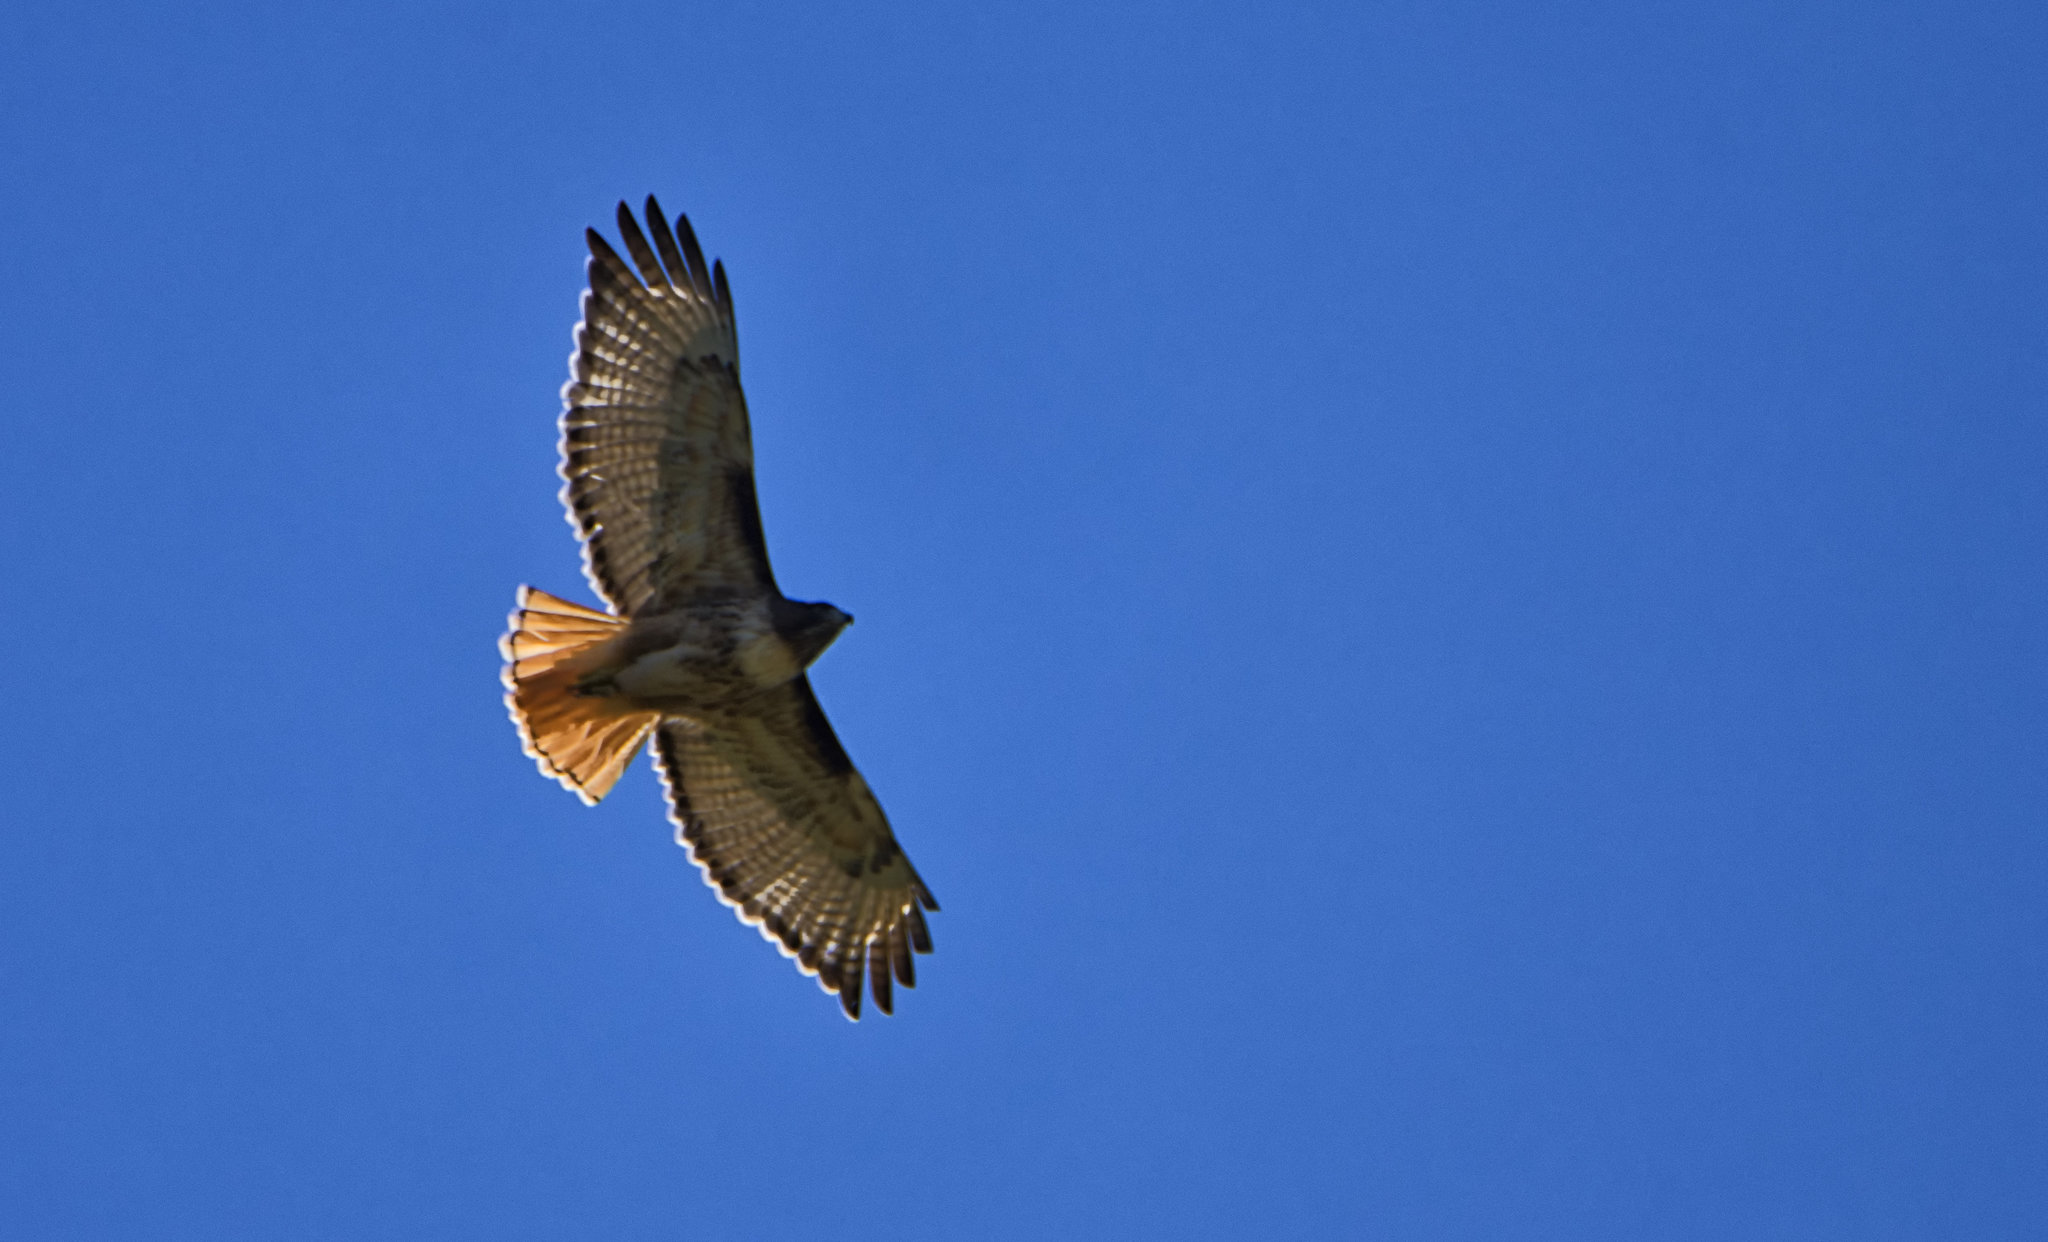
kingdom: Animalia
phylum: Chordata
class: Aves
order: Accipitriformes
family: Accipitridae
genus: Buteo
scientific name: Buteo jamaicensis
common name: Red-tailed hawk
